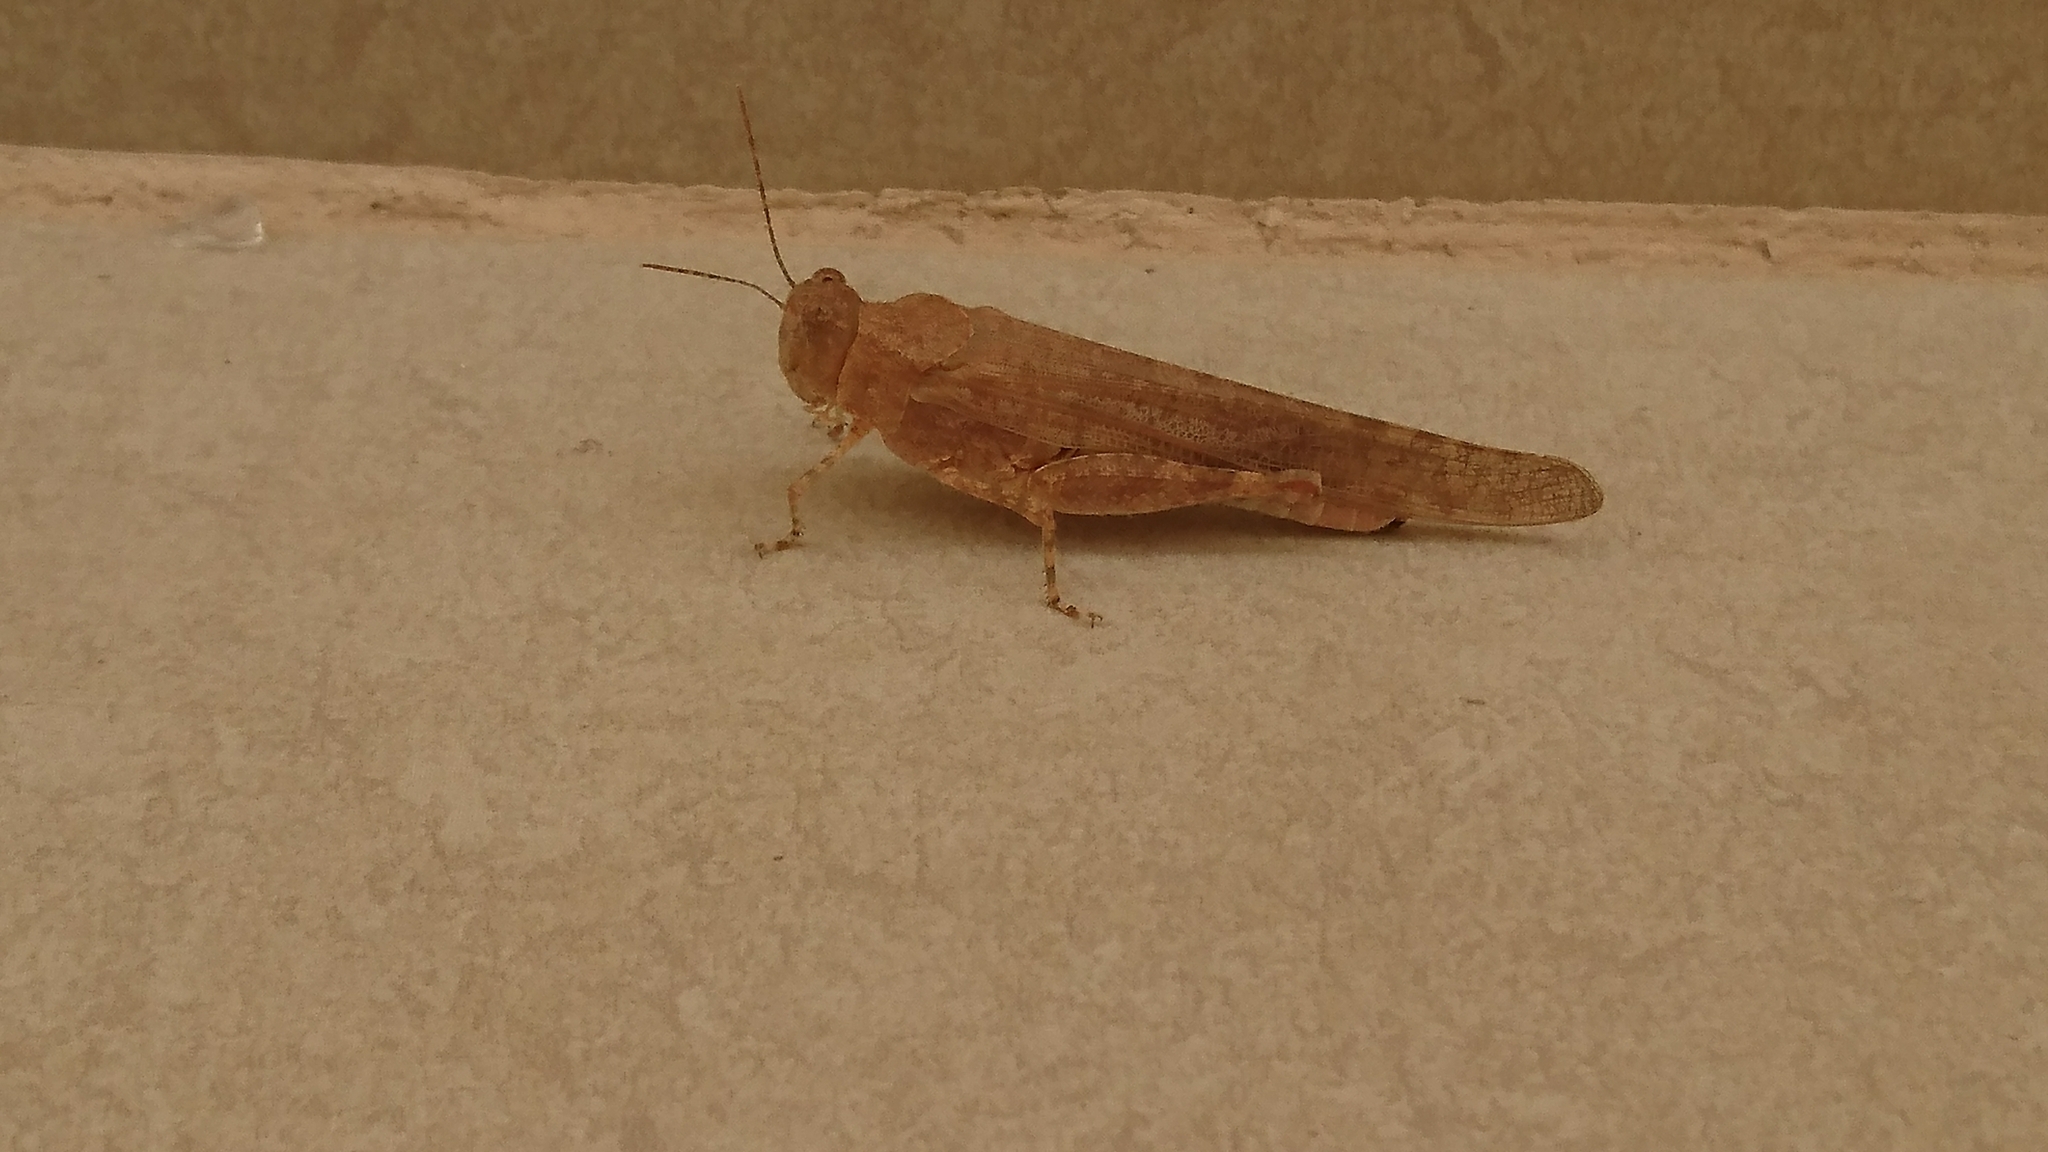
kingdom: Animalia
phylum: Arthropoda
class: Insecta
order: Orthoptera
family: Acrididae
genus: Sphingonotus
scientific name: Sphingonotus rubescens
